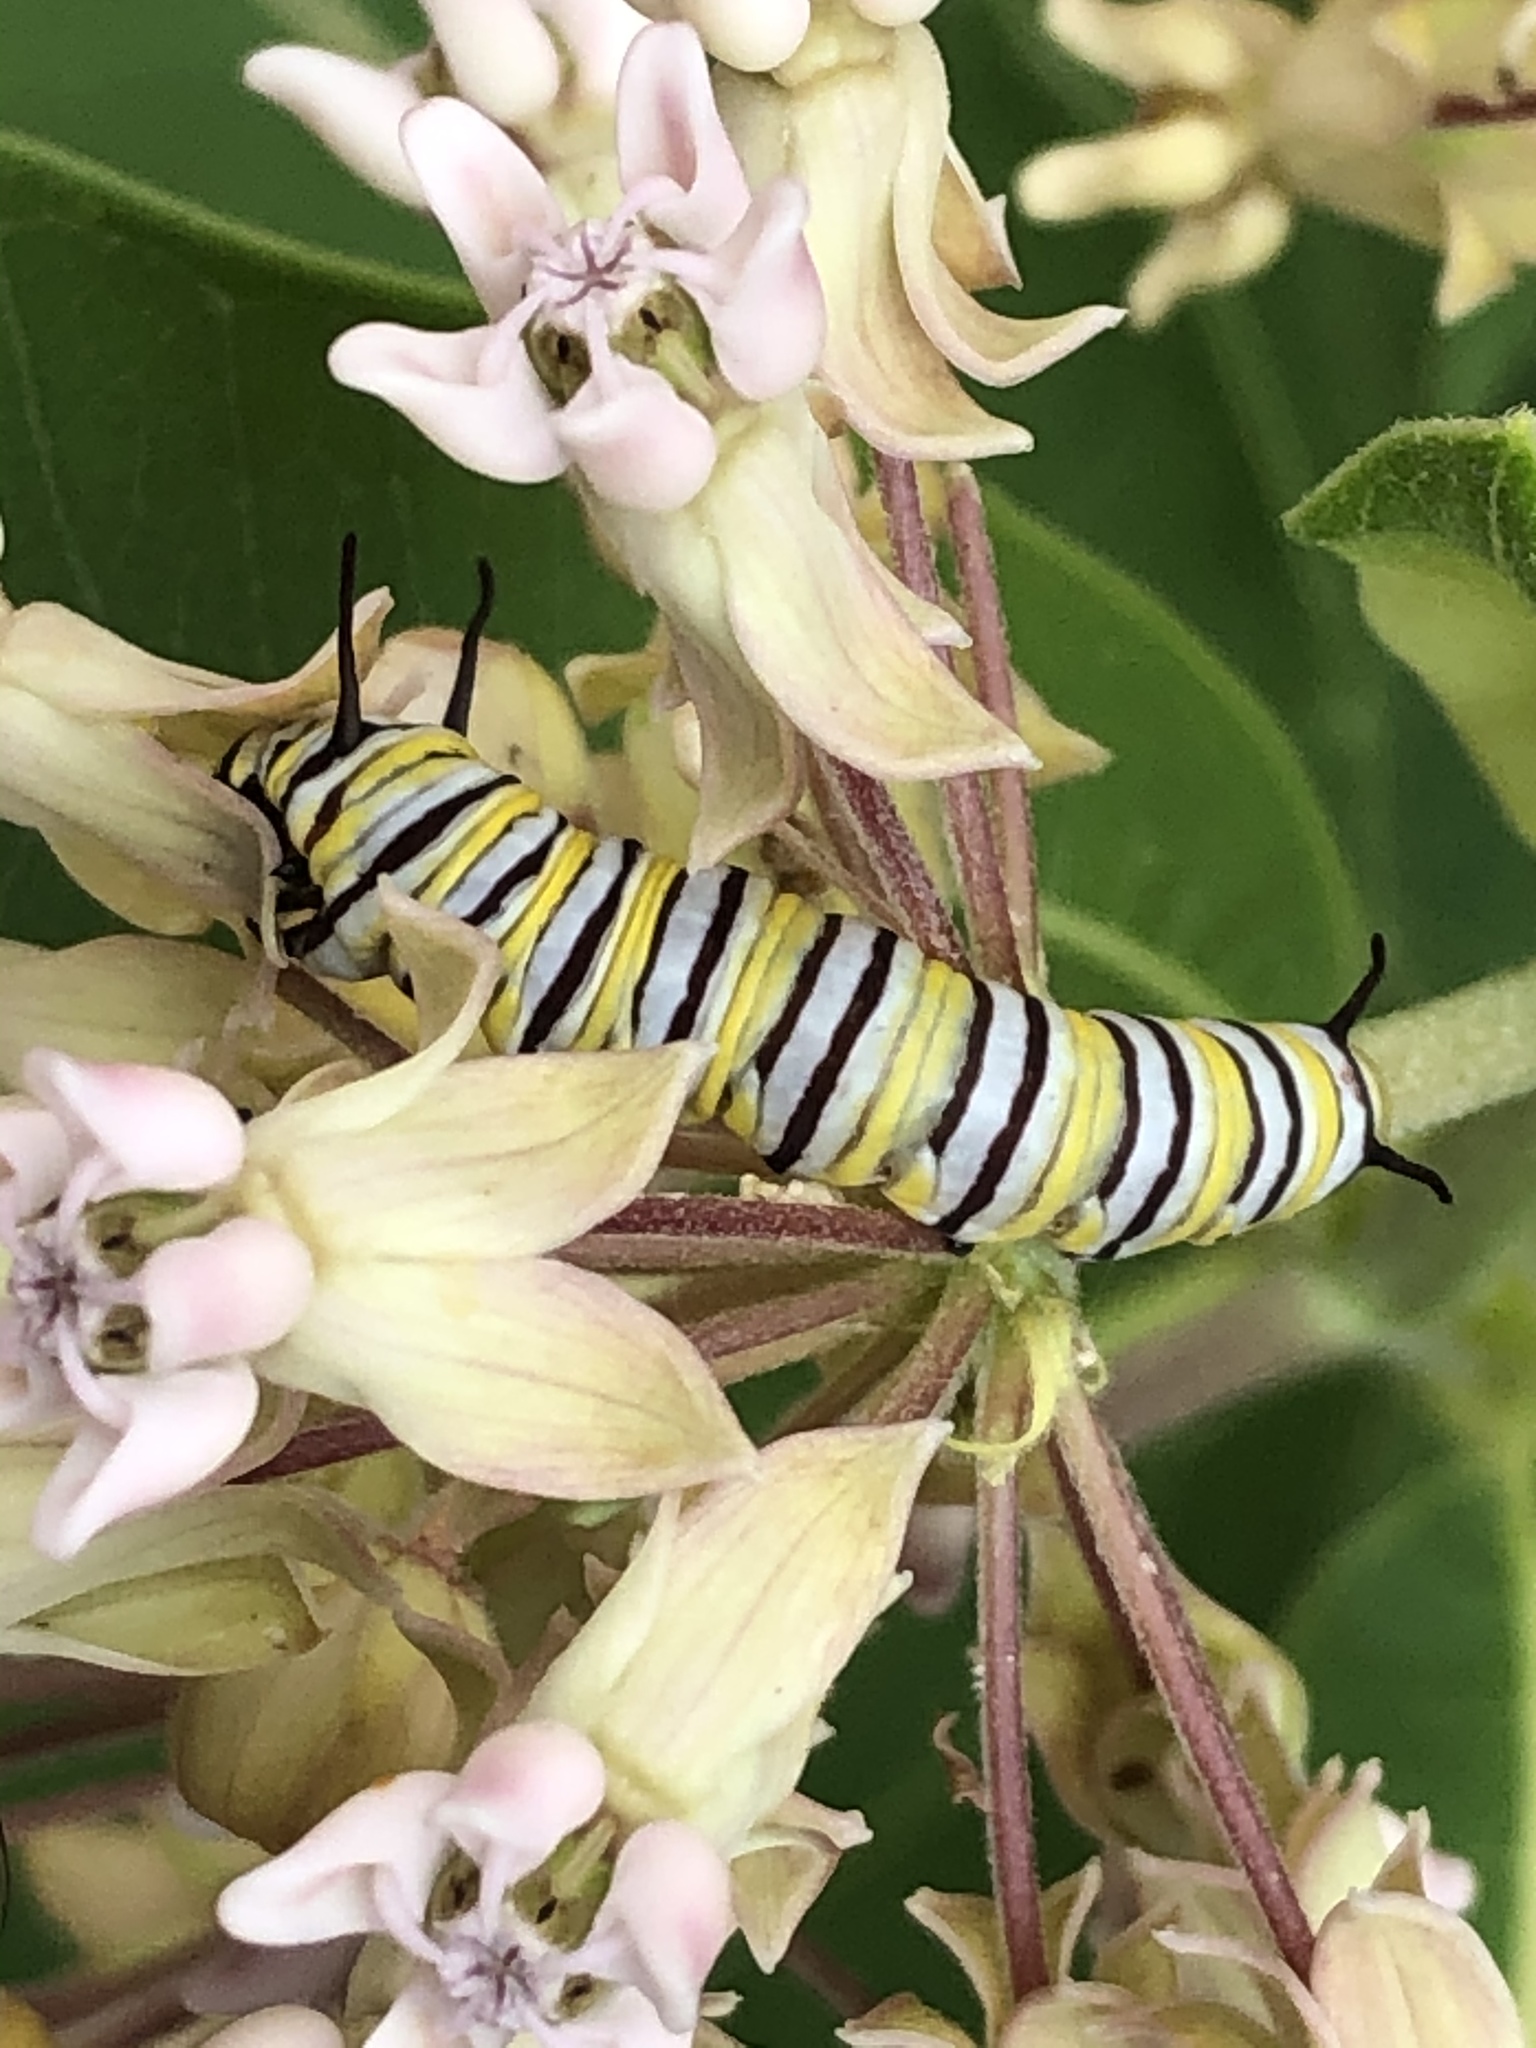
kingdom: Animalia
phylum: Arthropoda
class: Insecta
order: Lepidoptera
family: Nymphalidae
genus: Danaus
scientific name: Danaus plexippus
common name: Monarch
